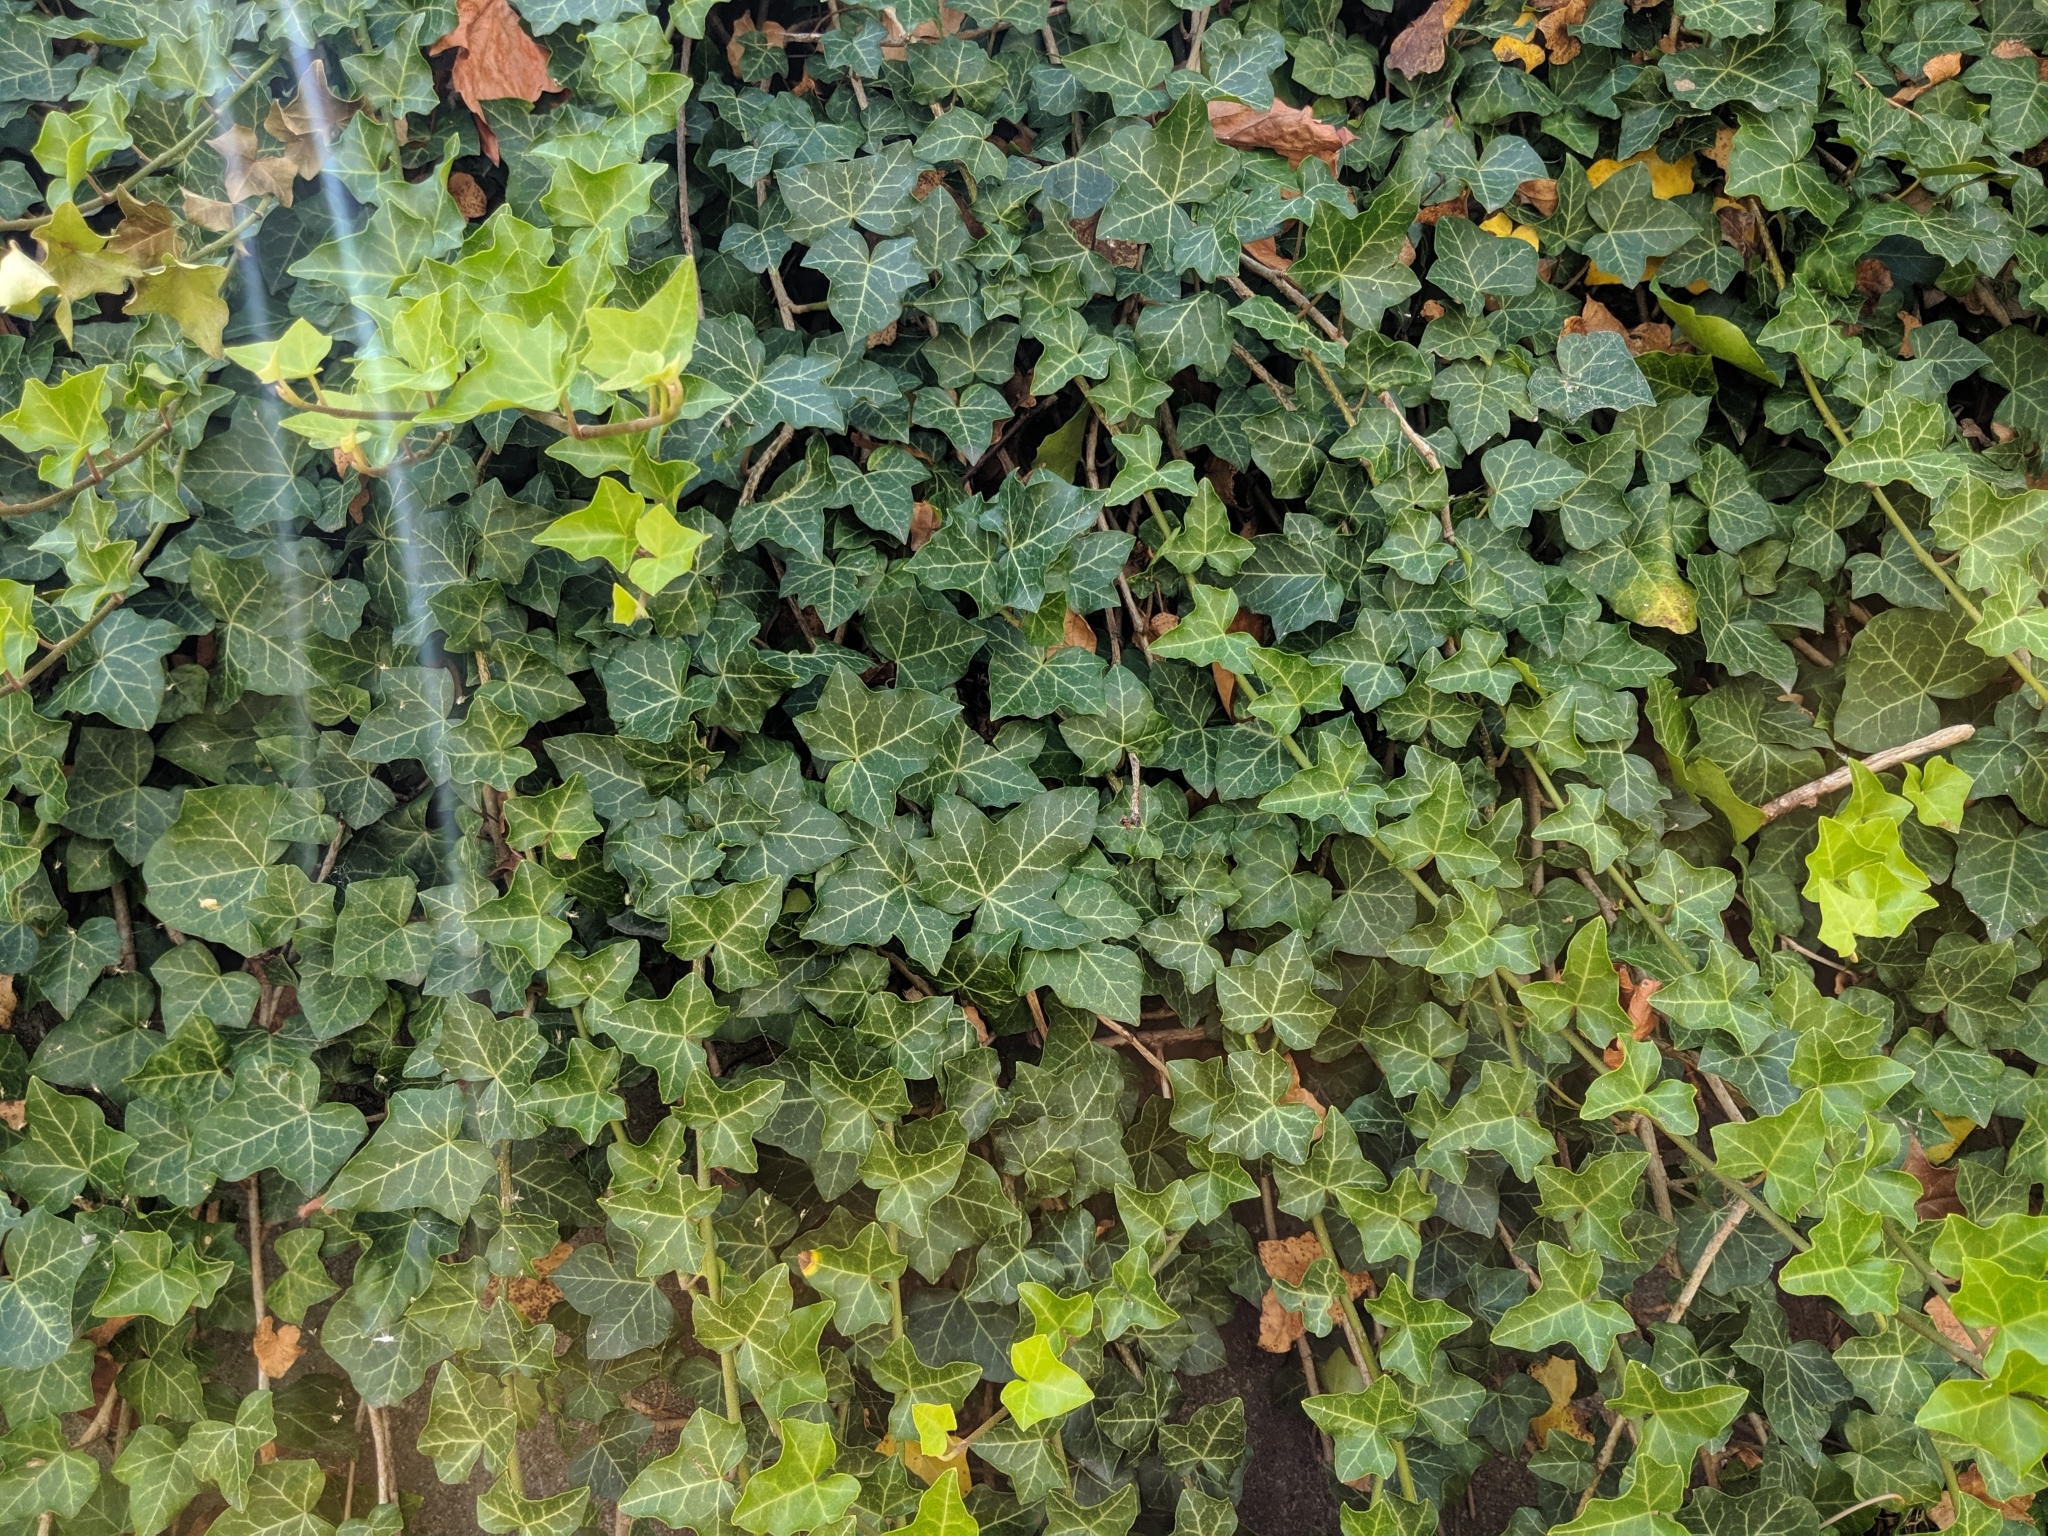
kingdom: Plantae
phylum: Tracheophyta
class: Magnoliopsida
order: Apiales
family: Araliaceae
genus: Hedera
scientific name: Hedera helix
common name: Ivy
